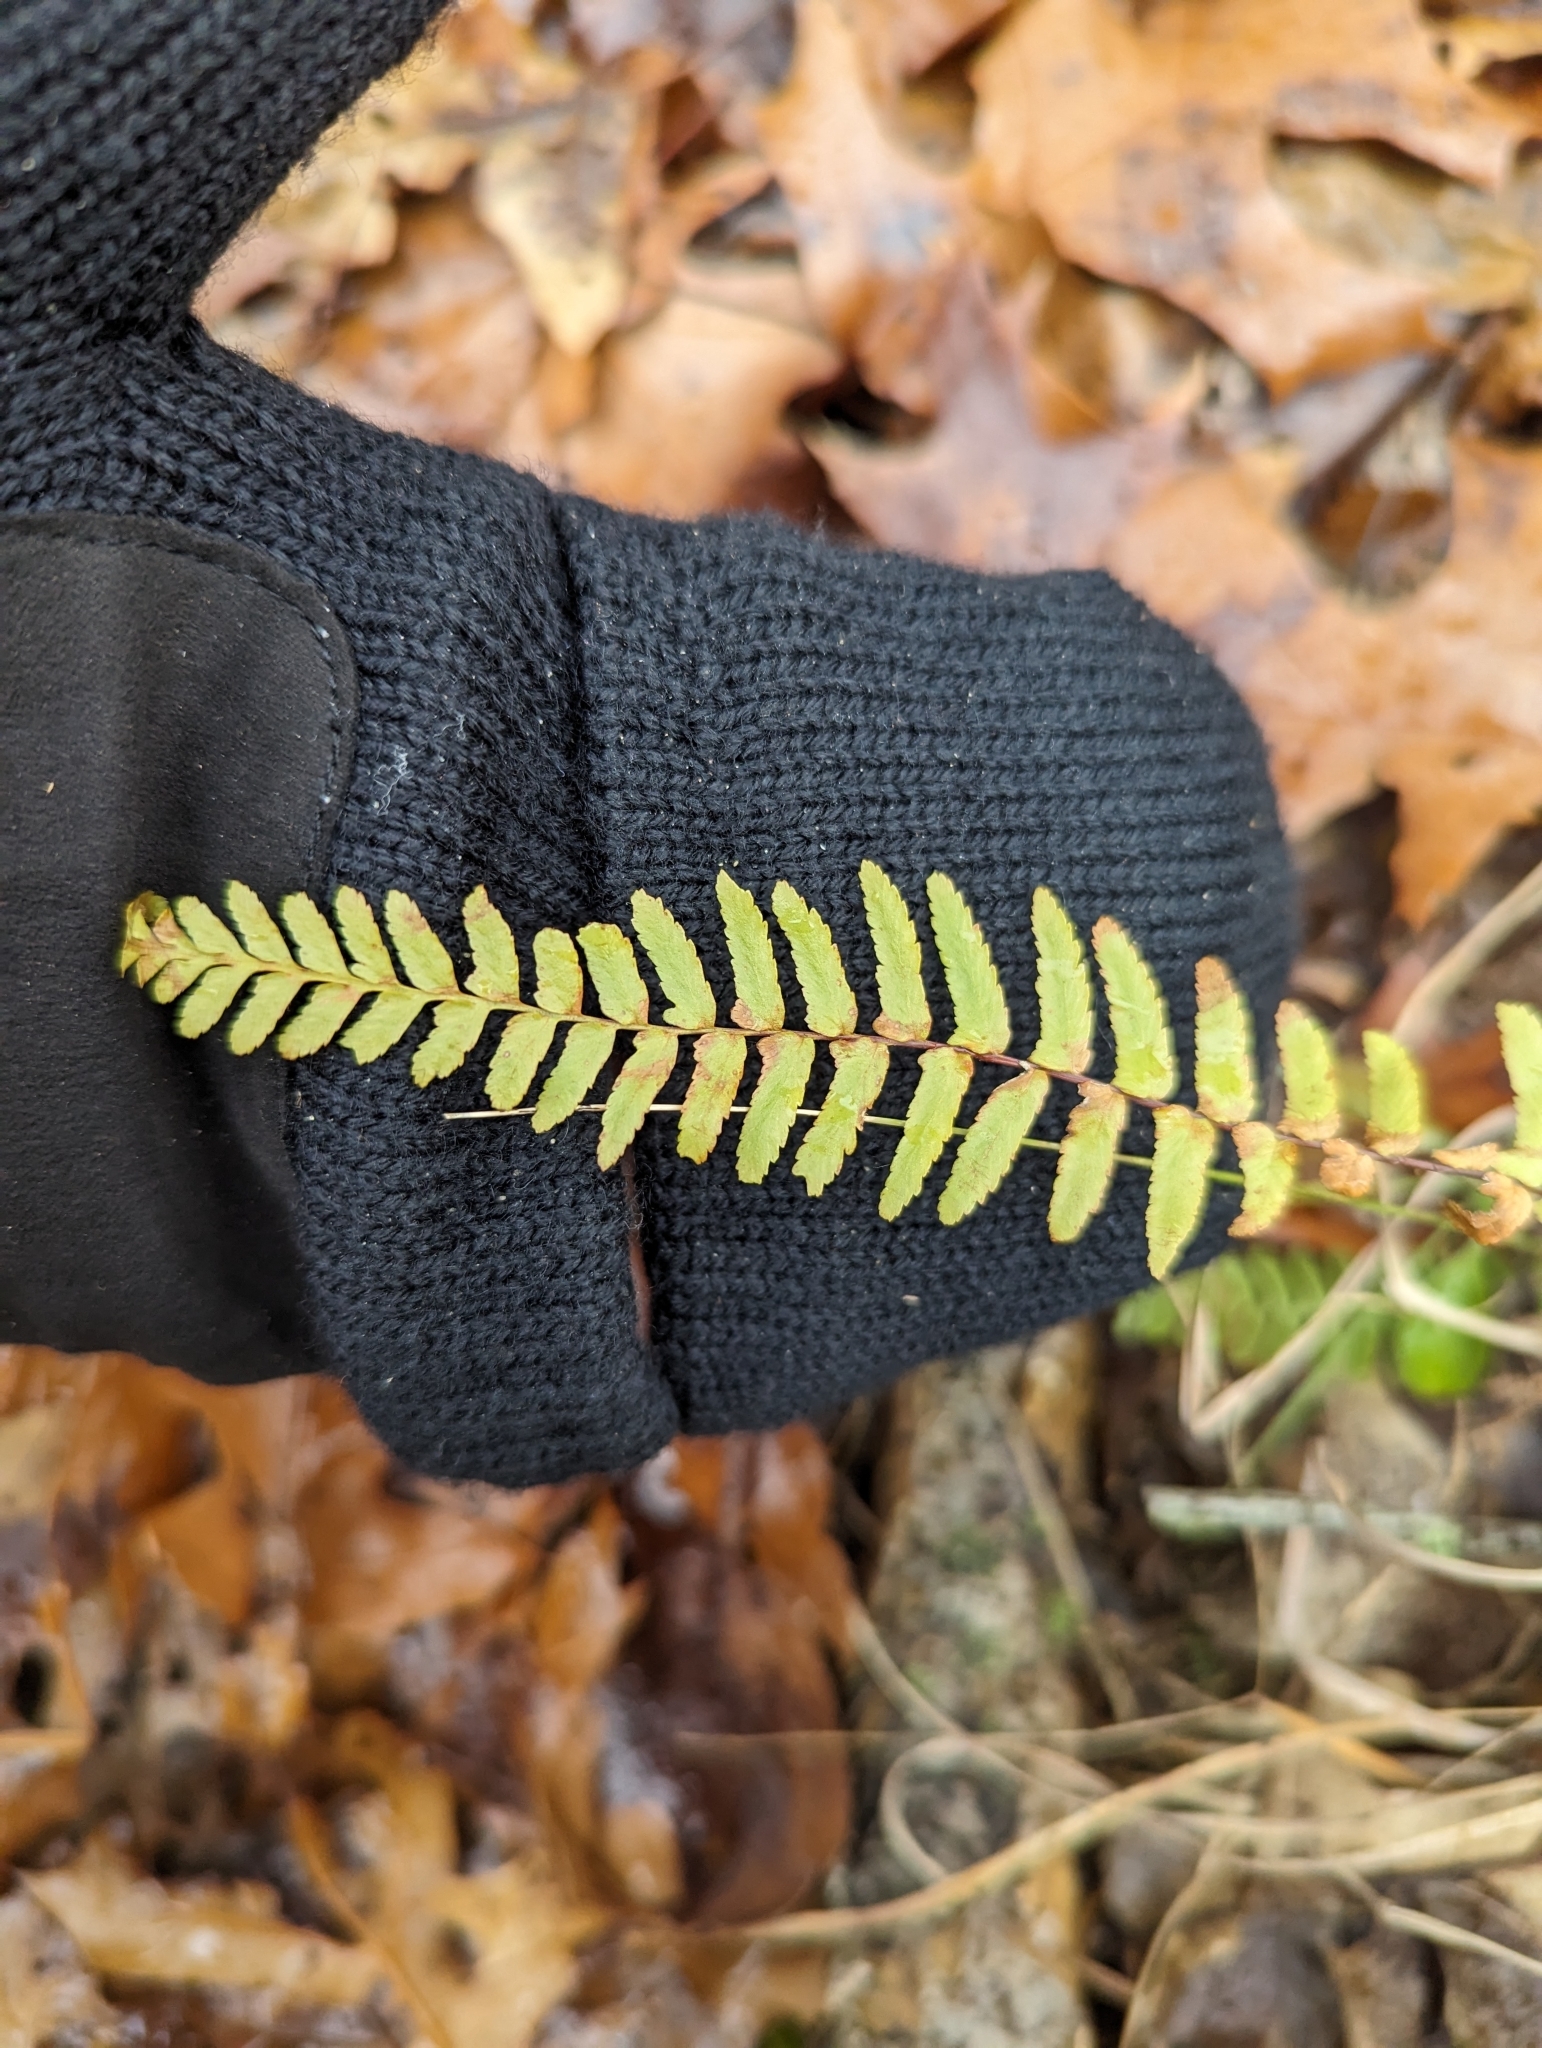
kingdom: Plantae
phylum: Tracheophyta
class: Polypodiopsida
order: Polypodiales
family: Aspleniaceae
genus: Asplenium
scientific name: Asplenium platyneuron
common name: Ebony spleenwort
